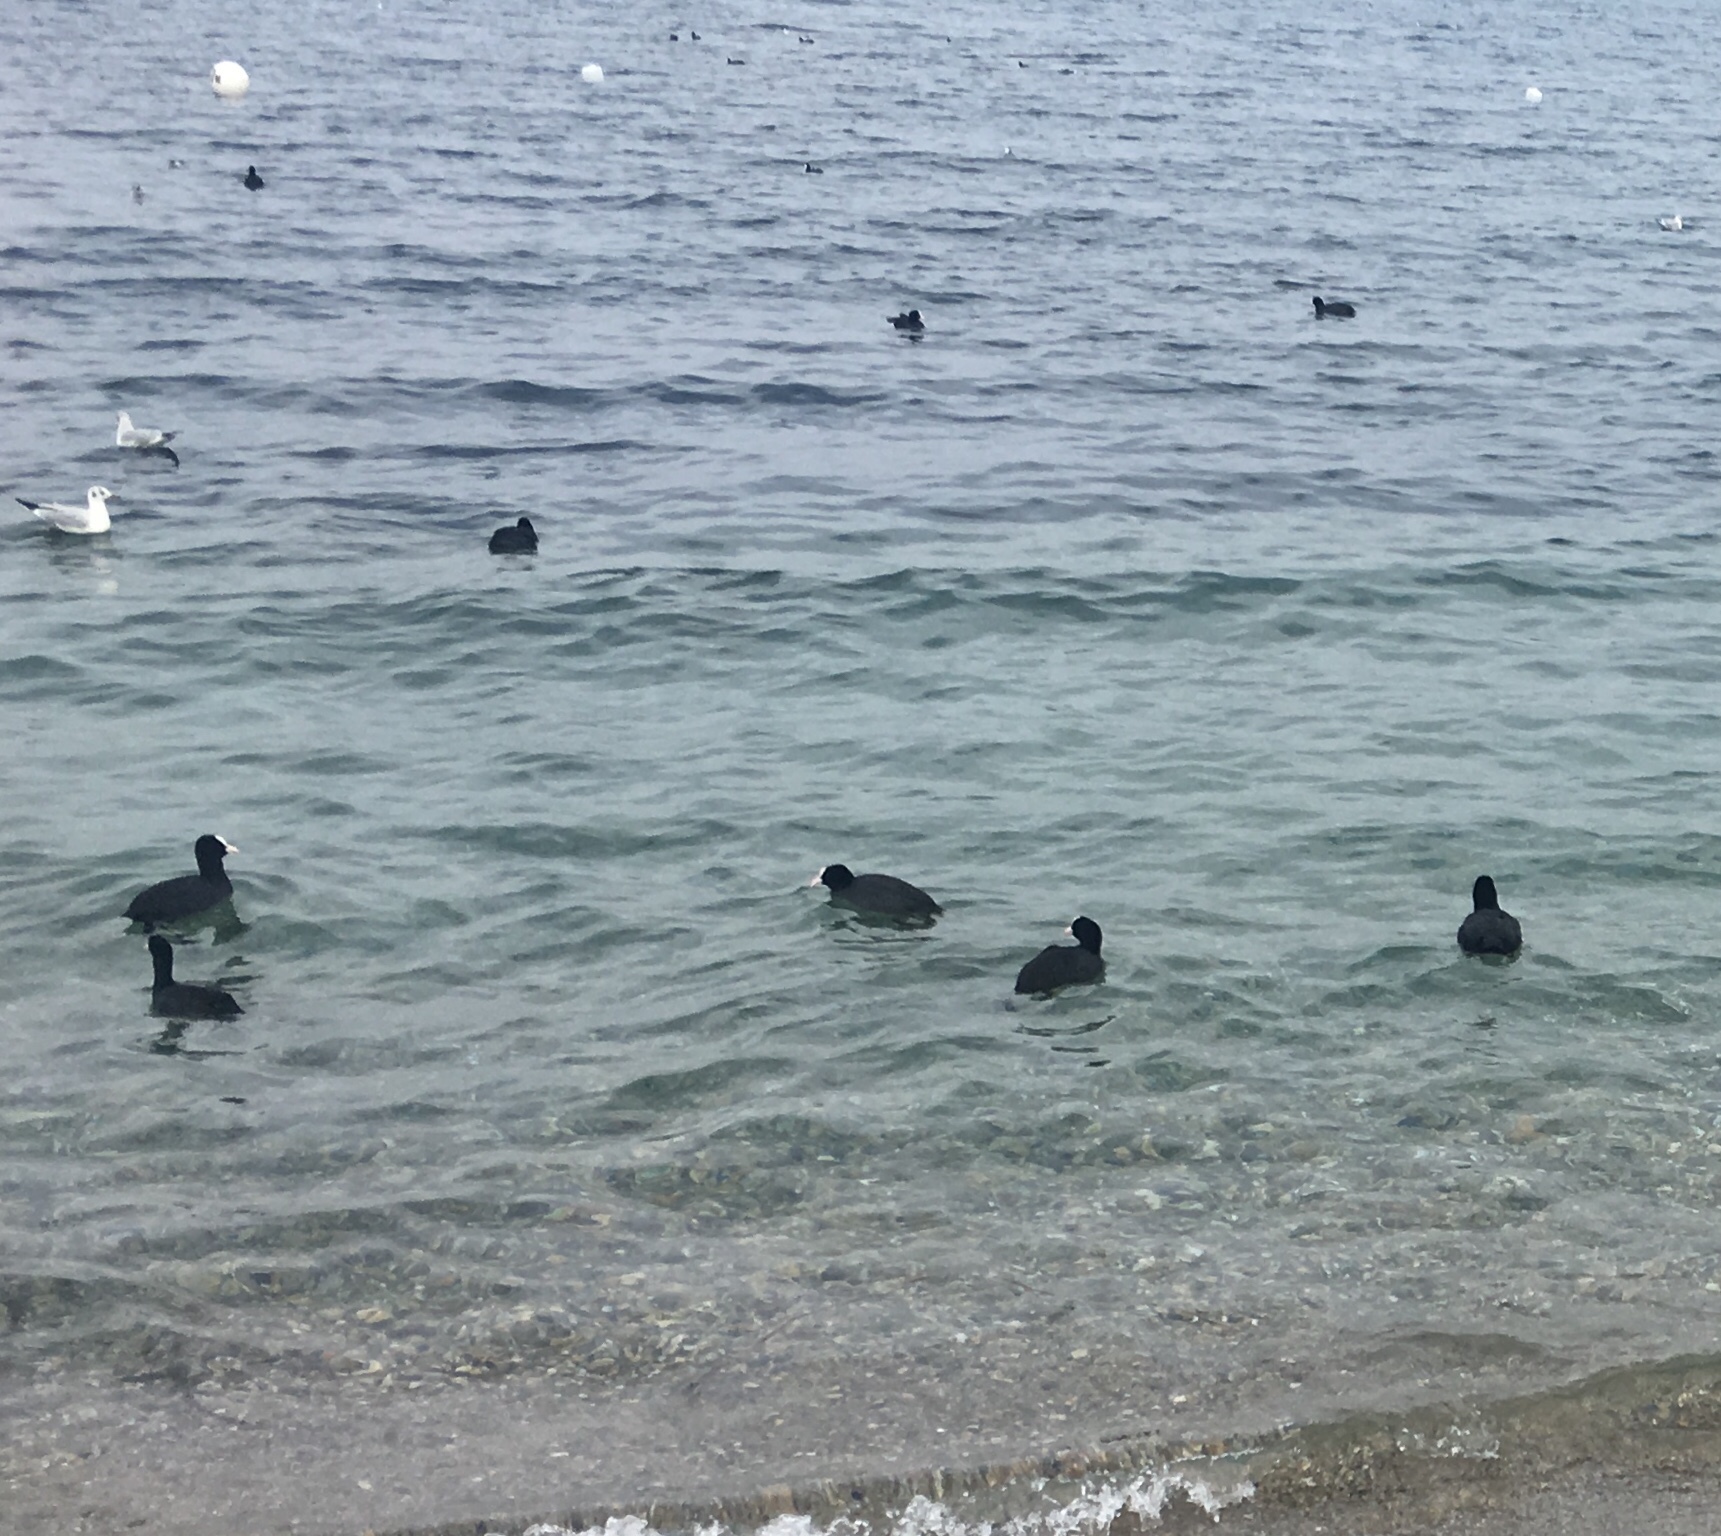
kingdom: Animalia
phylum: Chordata
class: Aves
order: Gruiformes
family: Rallidae
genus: Fulica
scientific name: Fulica atra
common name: Eurasian coot
